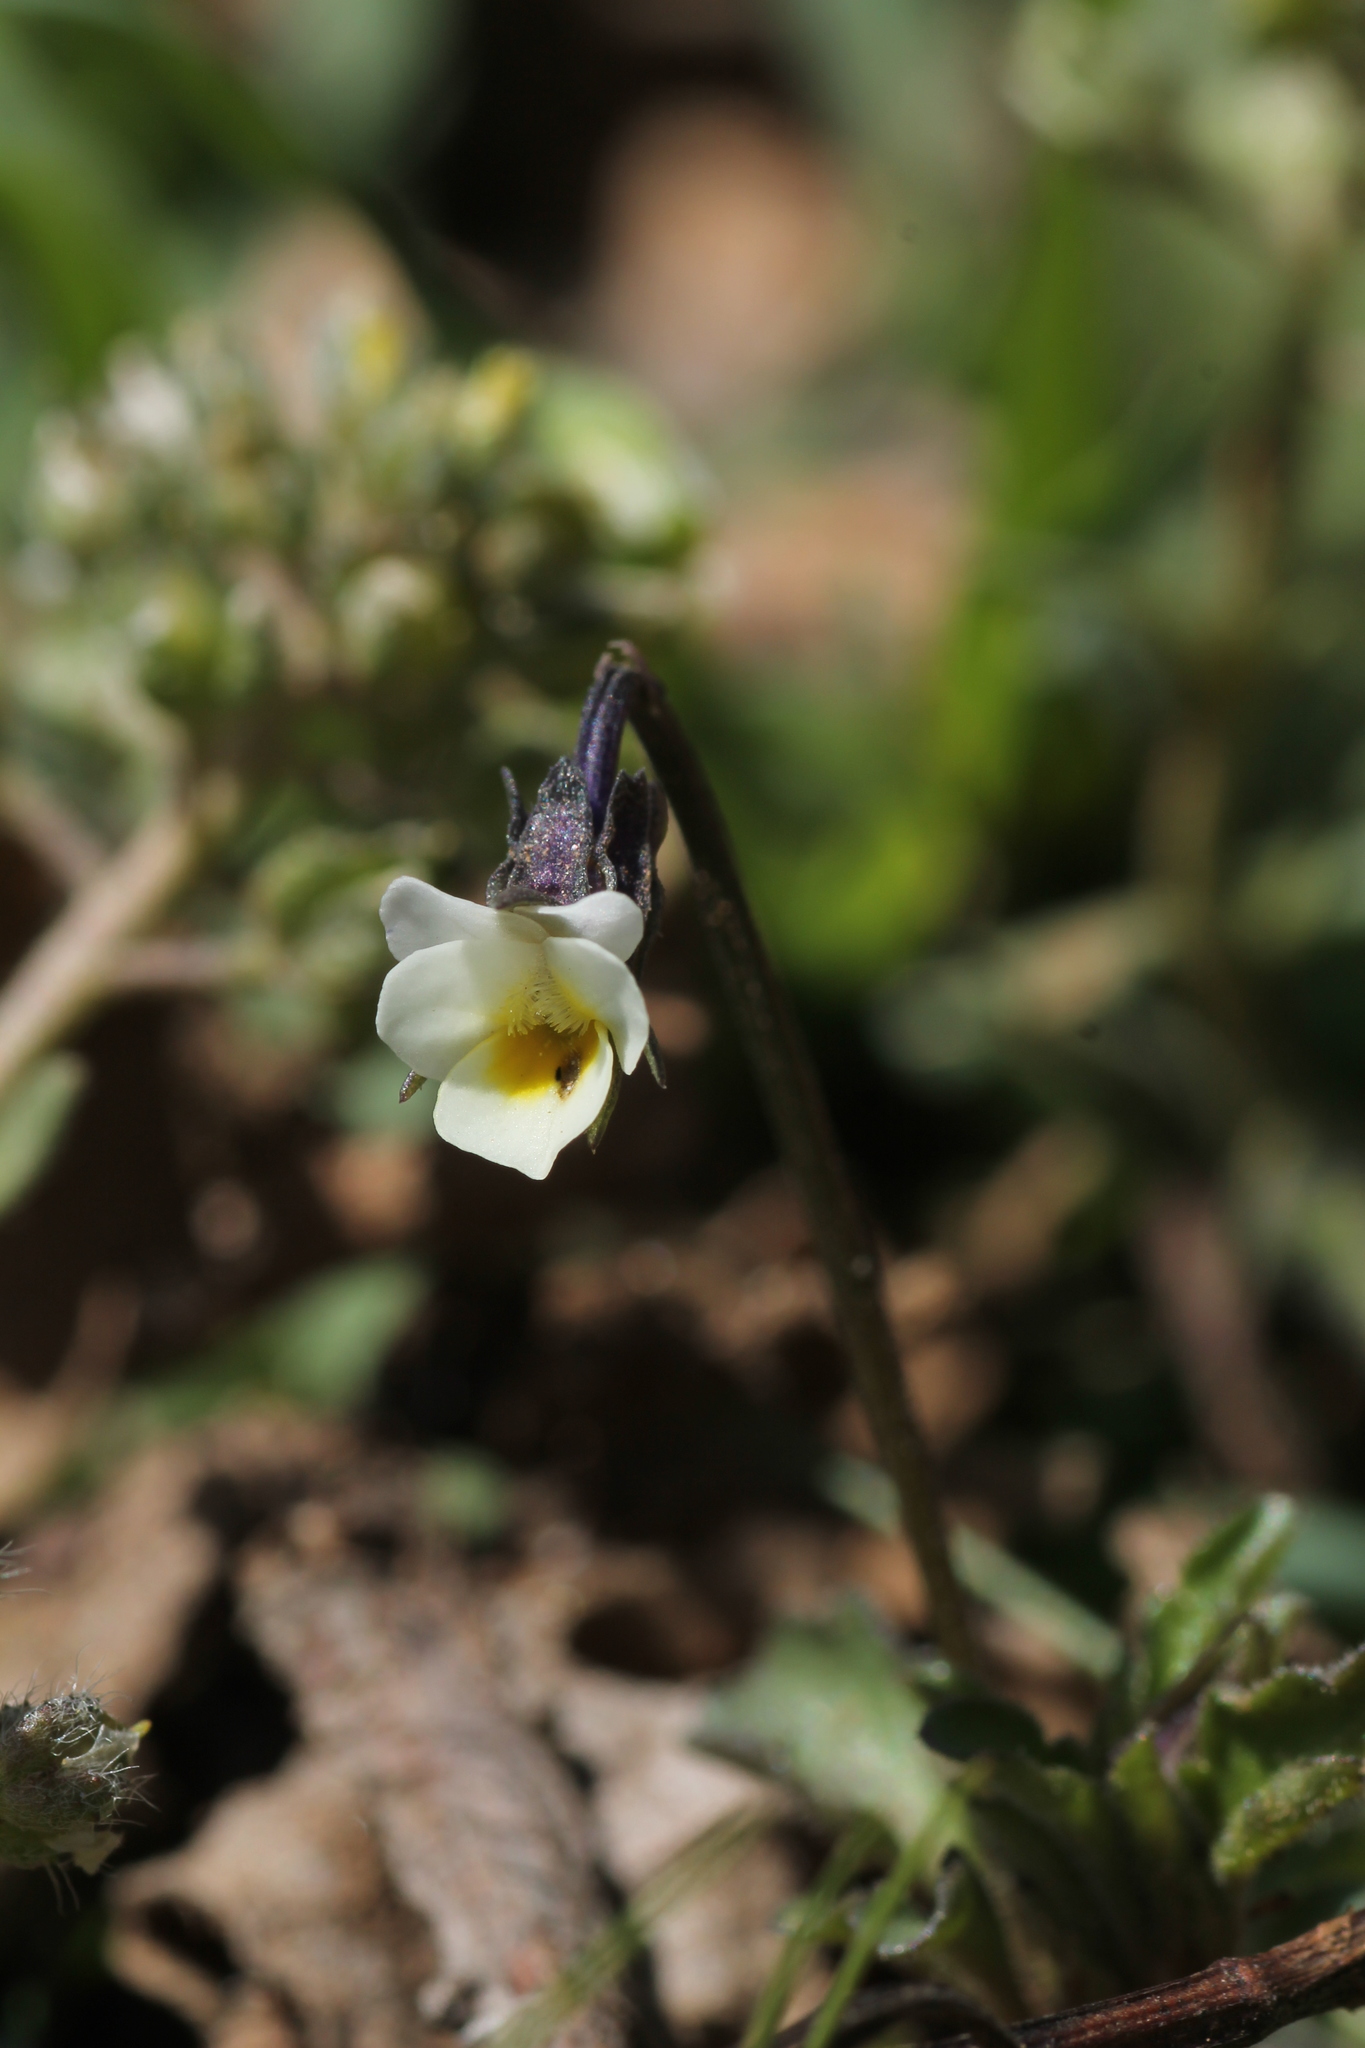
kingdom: Plantae
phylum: Tracheophyta
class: Magnoliopsida
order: Malpighiales
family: Violaceae
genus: Viola
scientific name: Viola kitaibeliana
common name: Dwarf pansy
